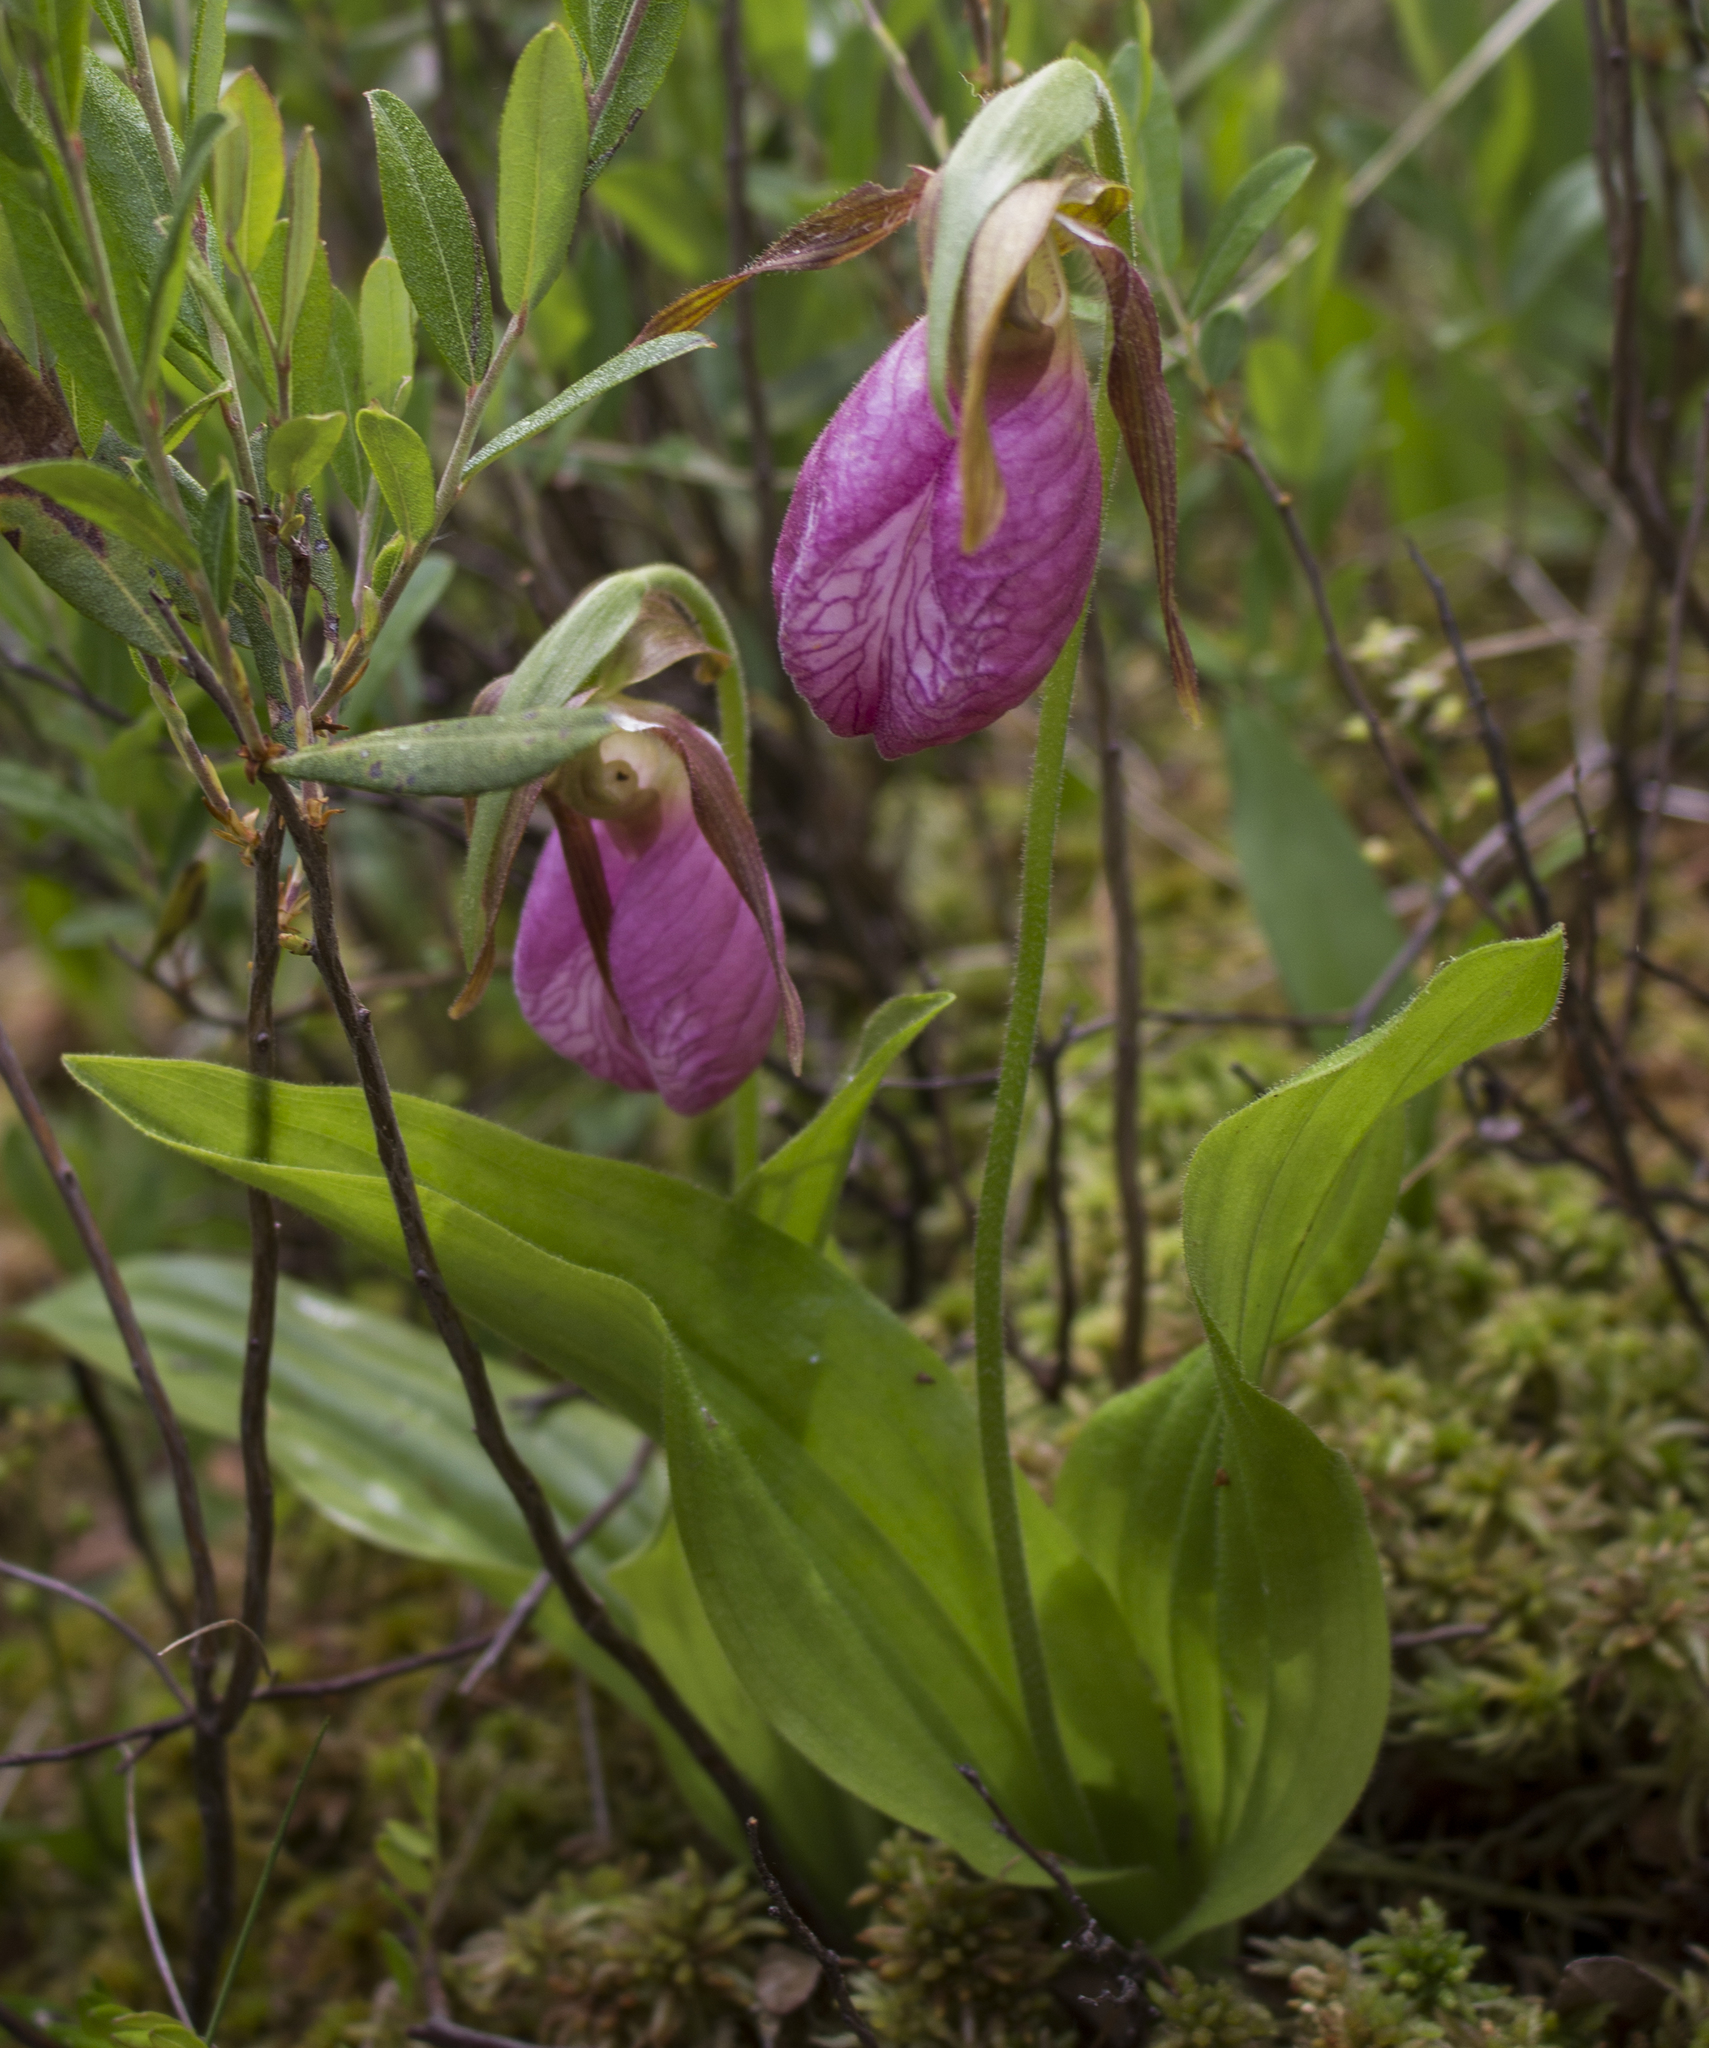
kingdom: Plantae
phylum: Tracheophyta
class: Liliopsida
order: Asparagales
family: Orchidaceae
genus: Cypripedium
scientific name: Cypripedium acaule
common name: Pink lady's-slipper
